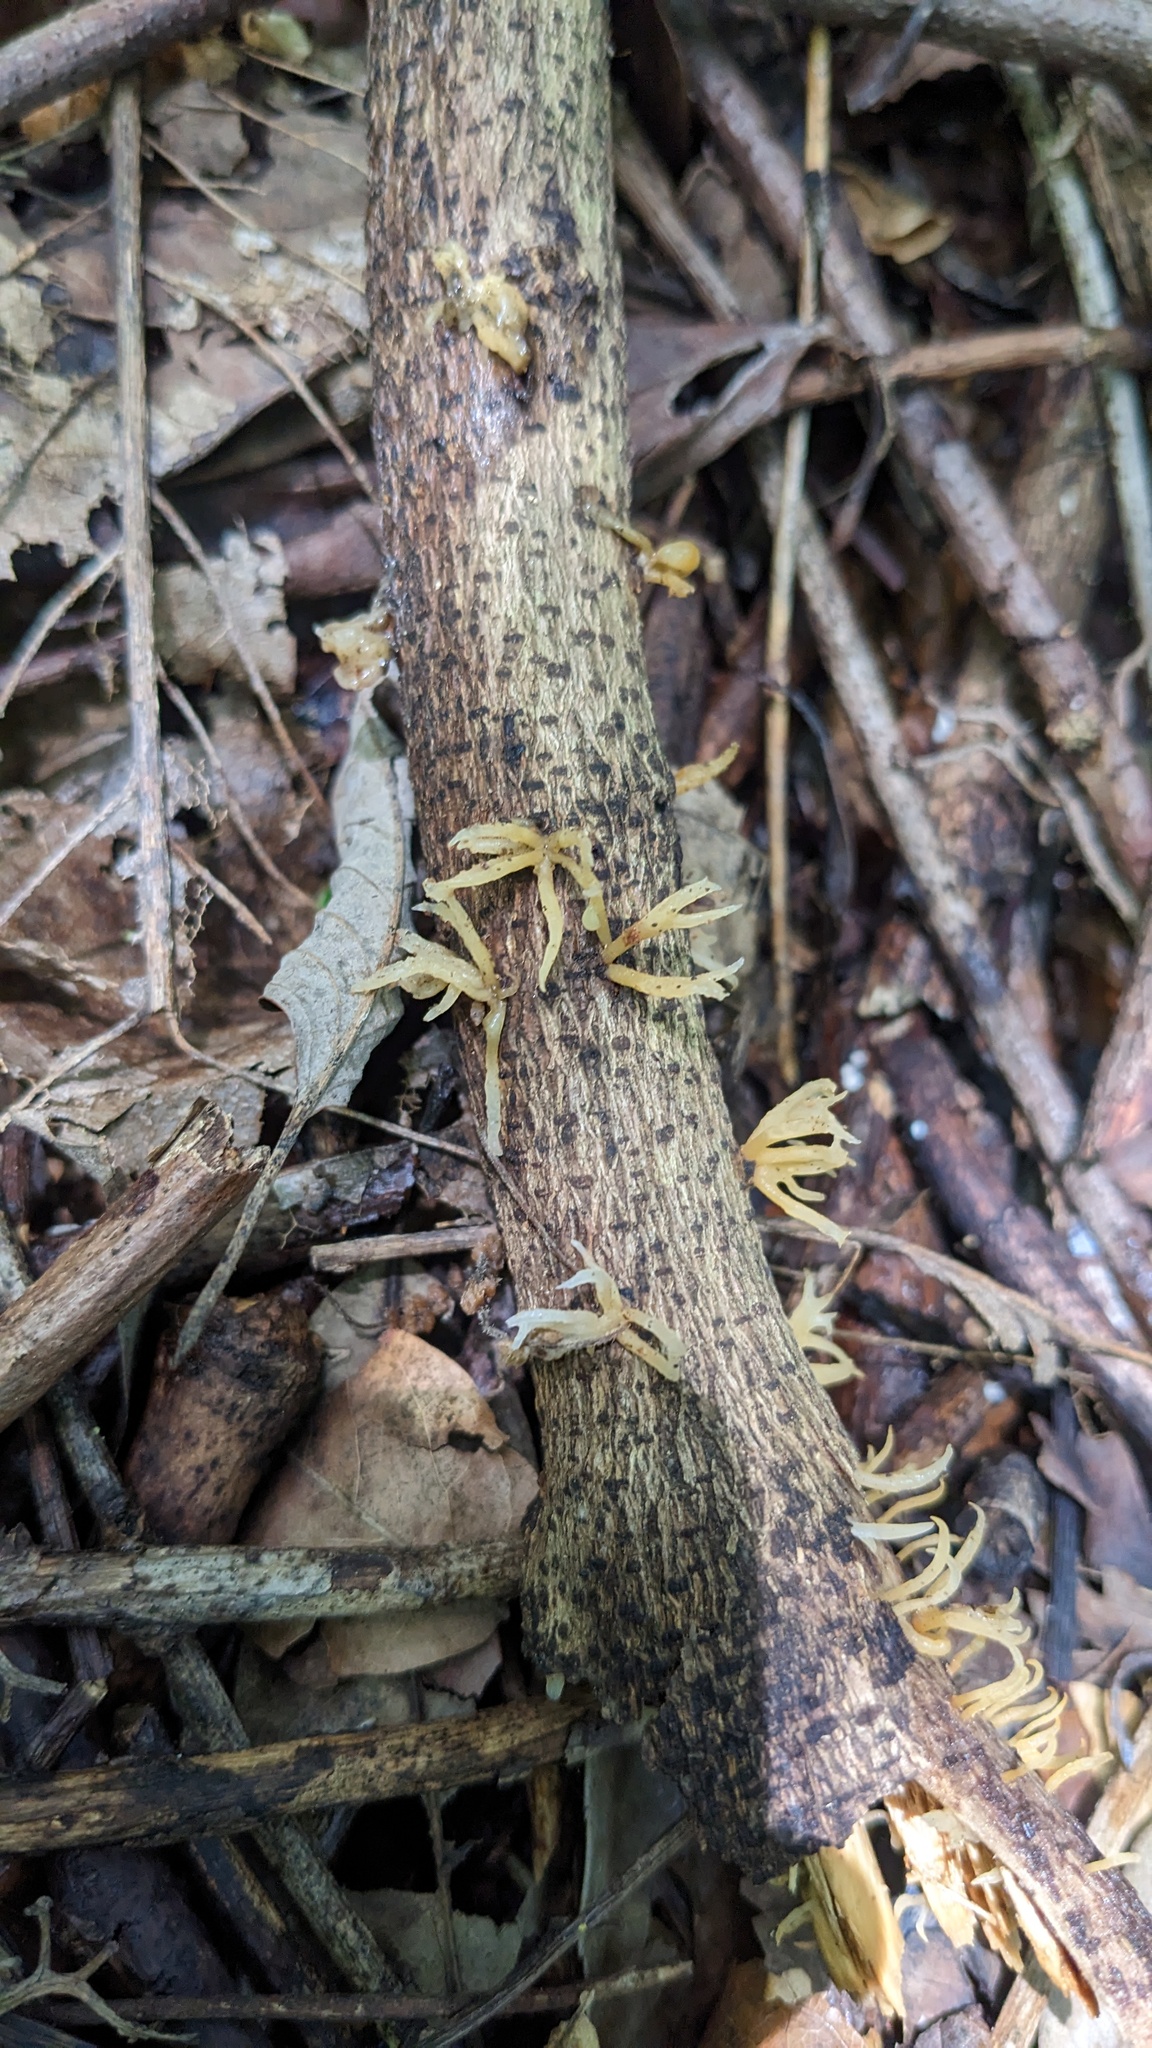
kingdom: Fungi
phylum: Basidiomycota
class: Dacrymycetes
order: Dacrymycetales
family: Dacrymycetaceae
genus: Calocera
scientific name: Calocera cornea
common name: Small stagshorn
